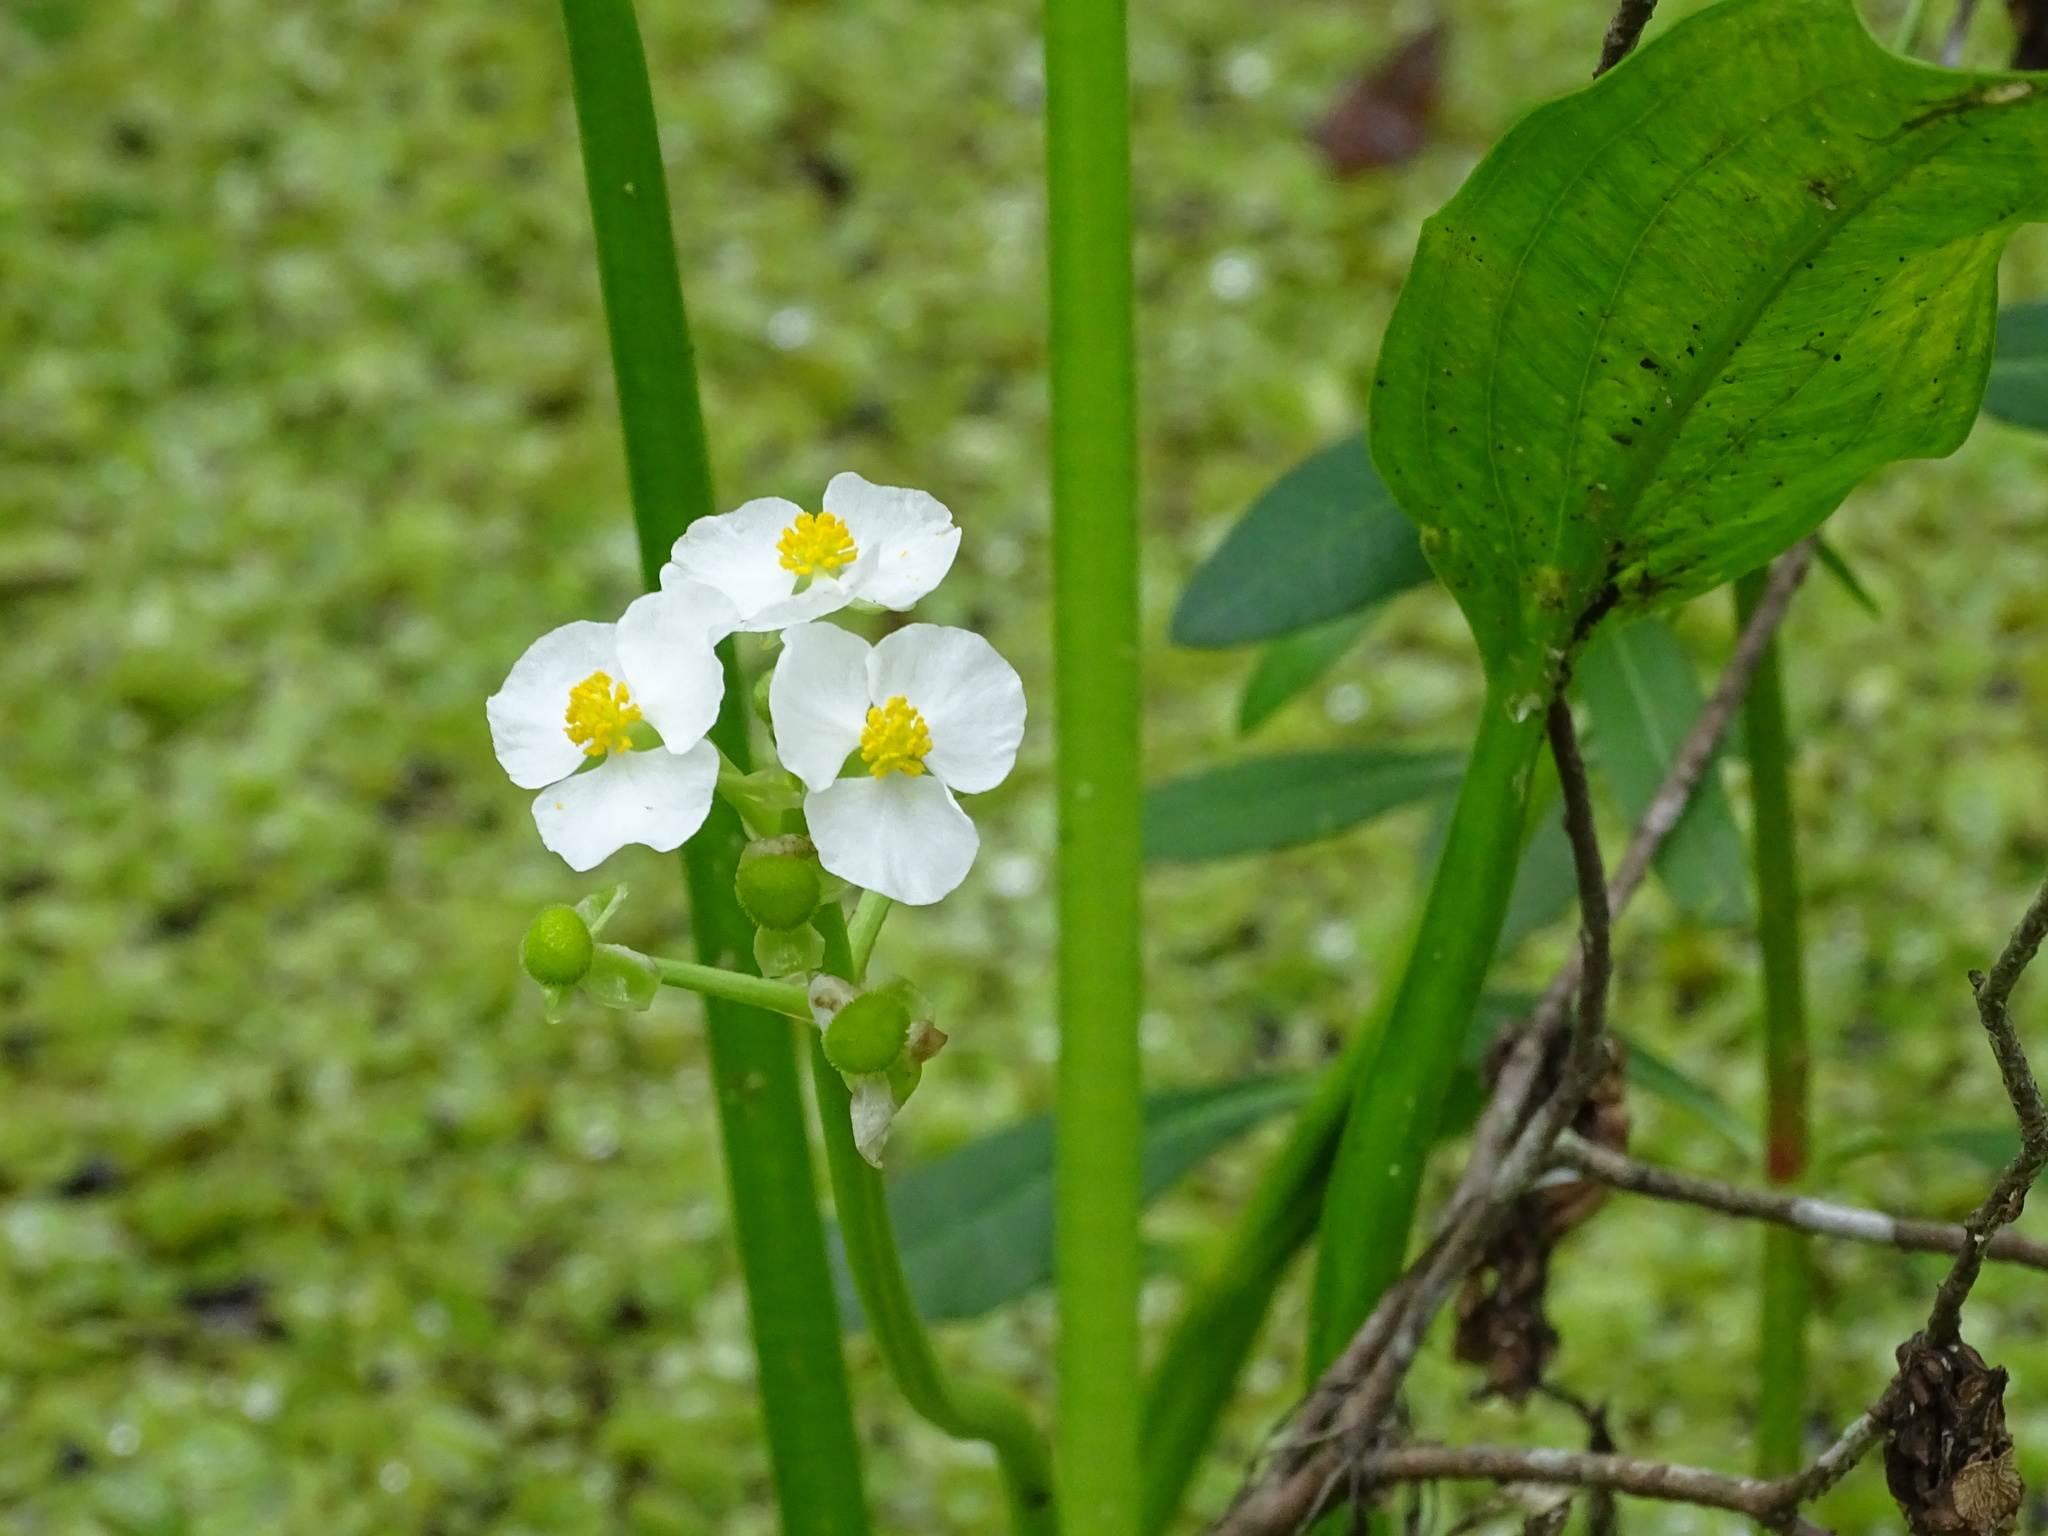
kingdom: Plantae
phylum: Tracheophyta
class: Liliopsida
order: Alismatales
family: Alismataceae
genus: Sagittaria
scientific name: Sagittaria platyphylla
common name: Broad-leaf arrowhead
